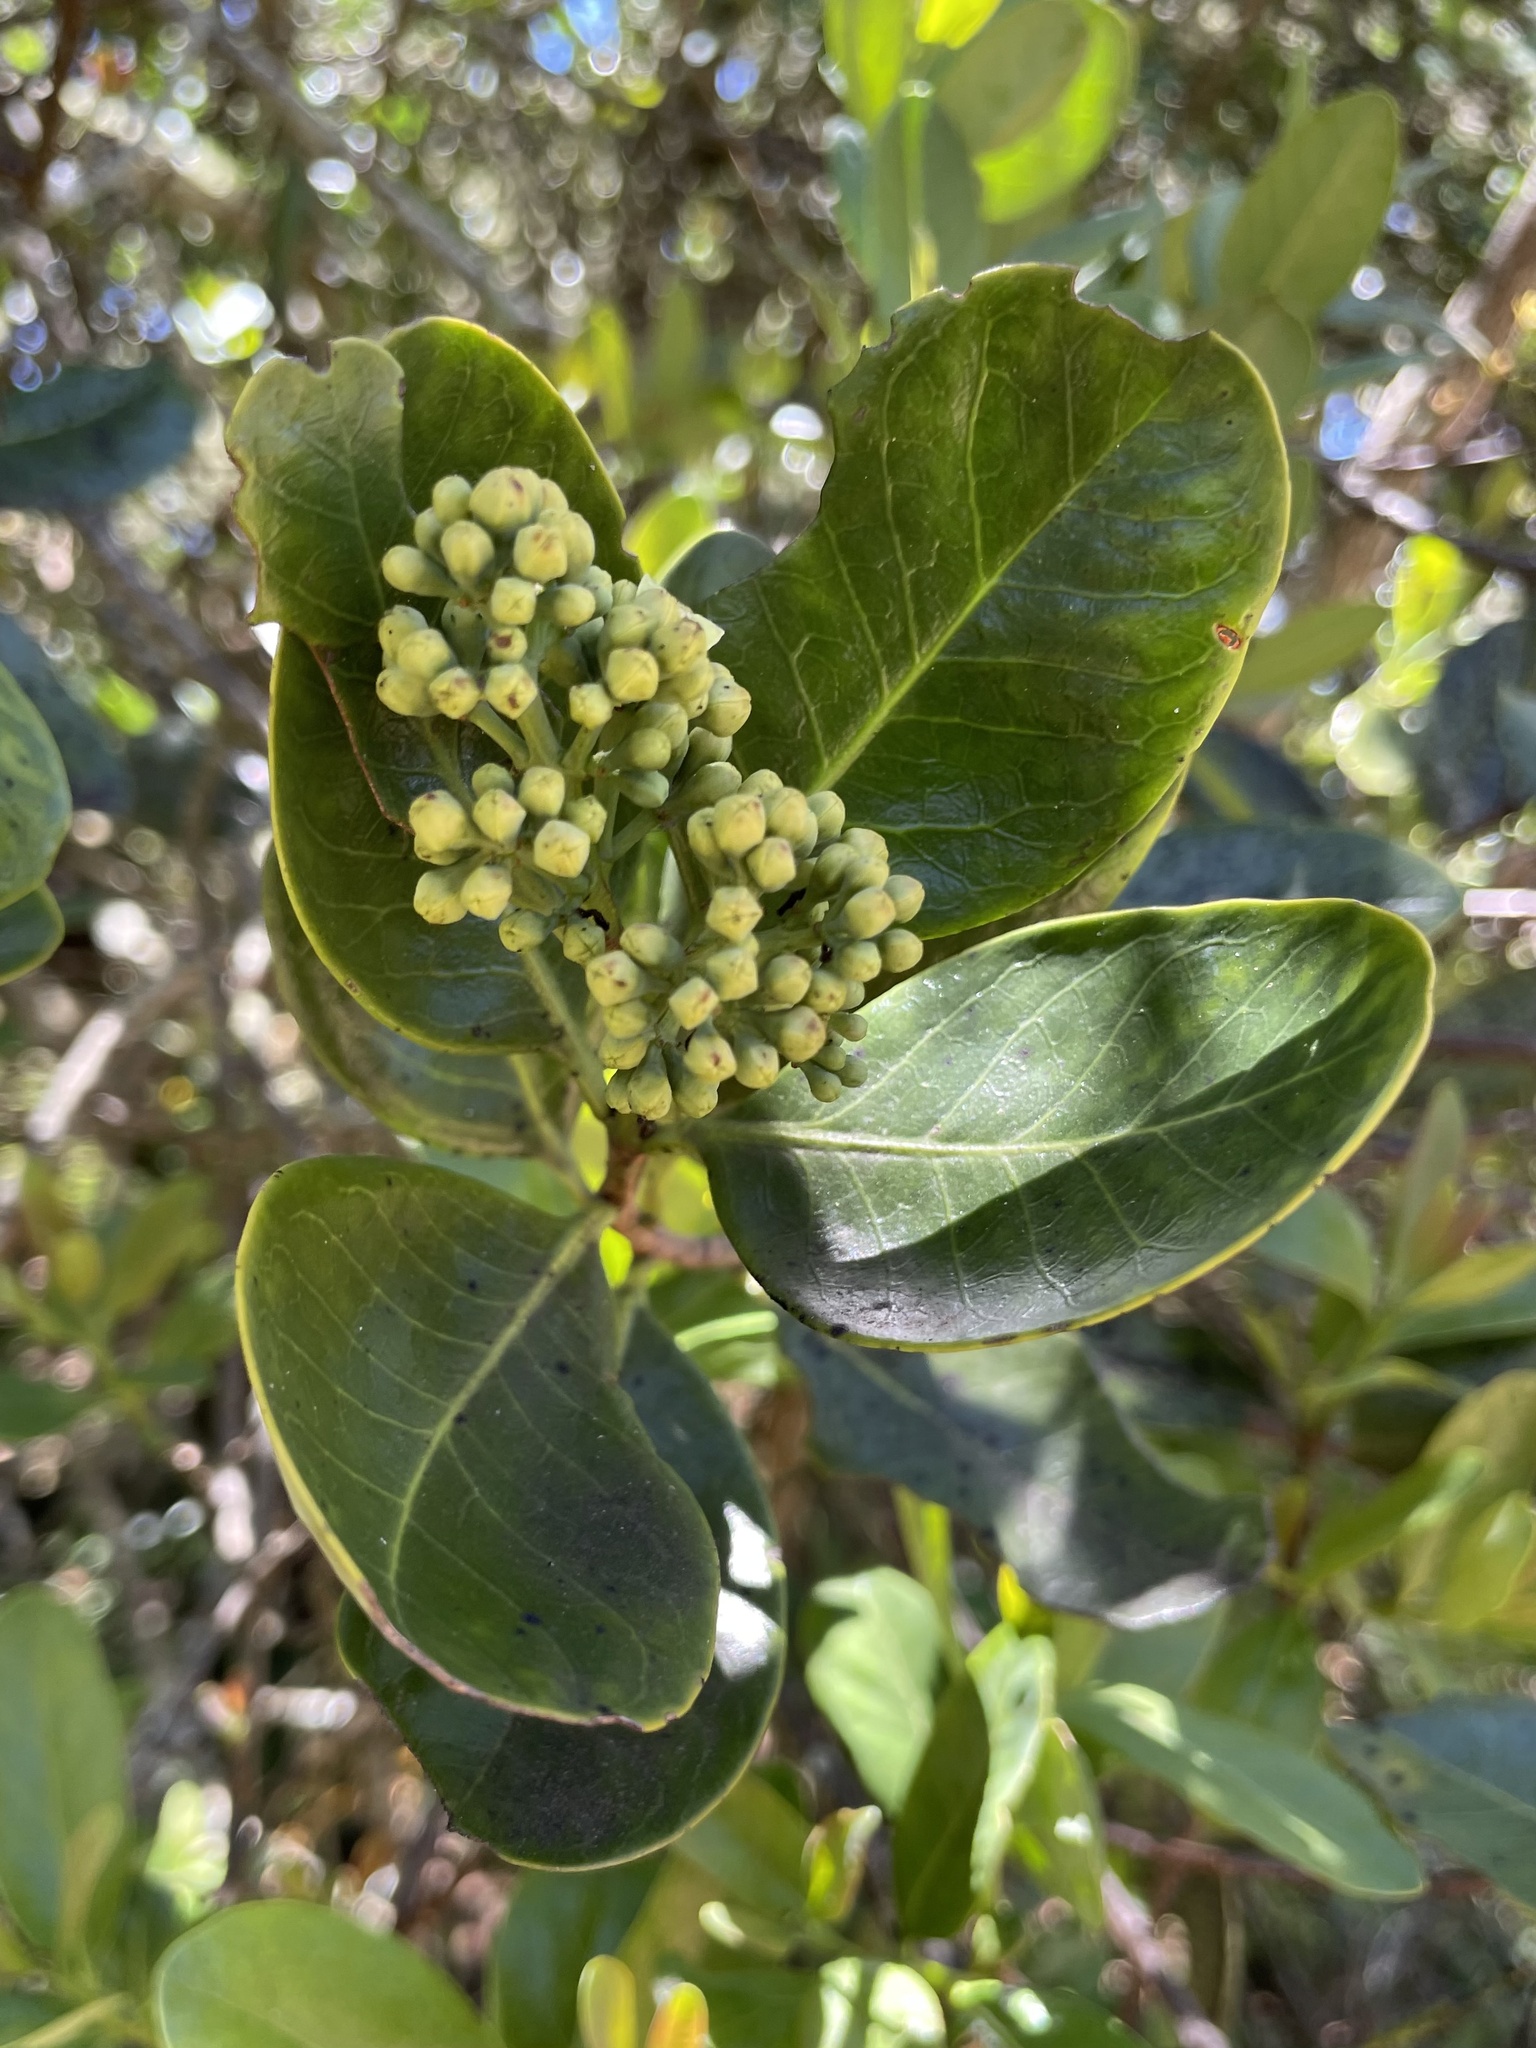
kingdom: Plantae
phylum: Tracheophyta
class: Magnoliopsida
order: Santalales
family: Santalaceae
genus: Santalum
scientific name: Santalum paniculatum
